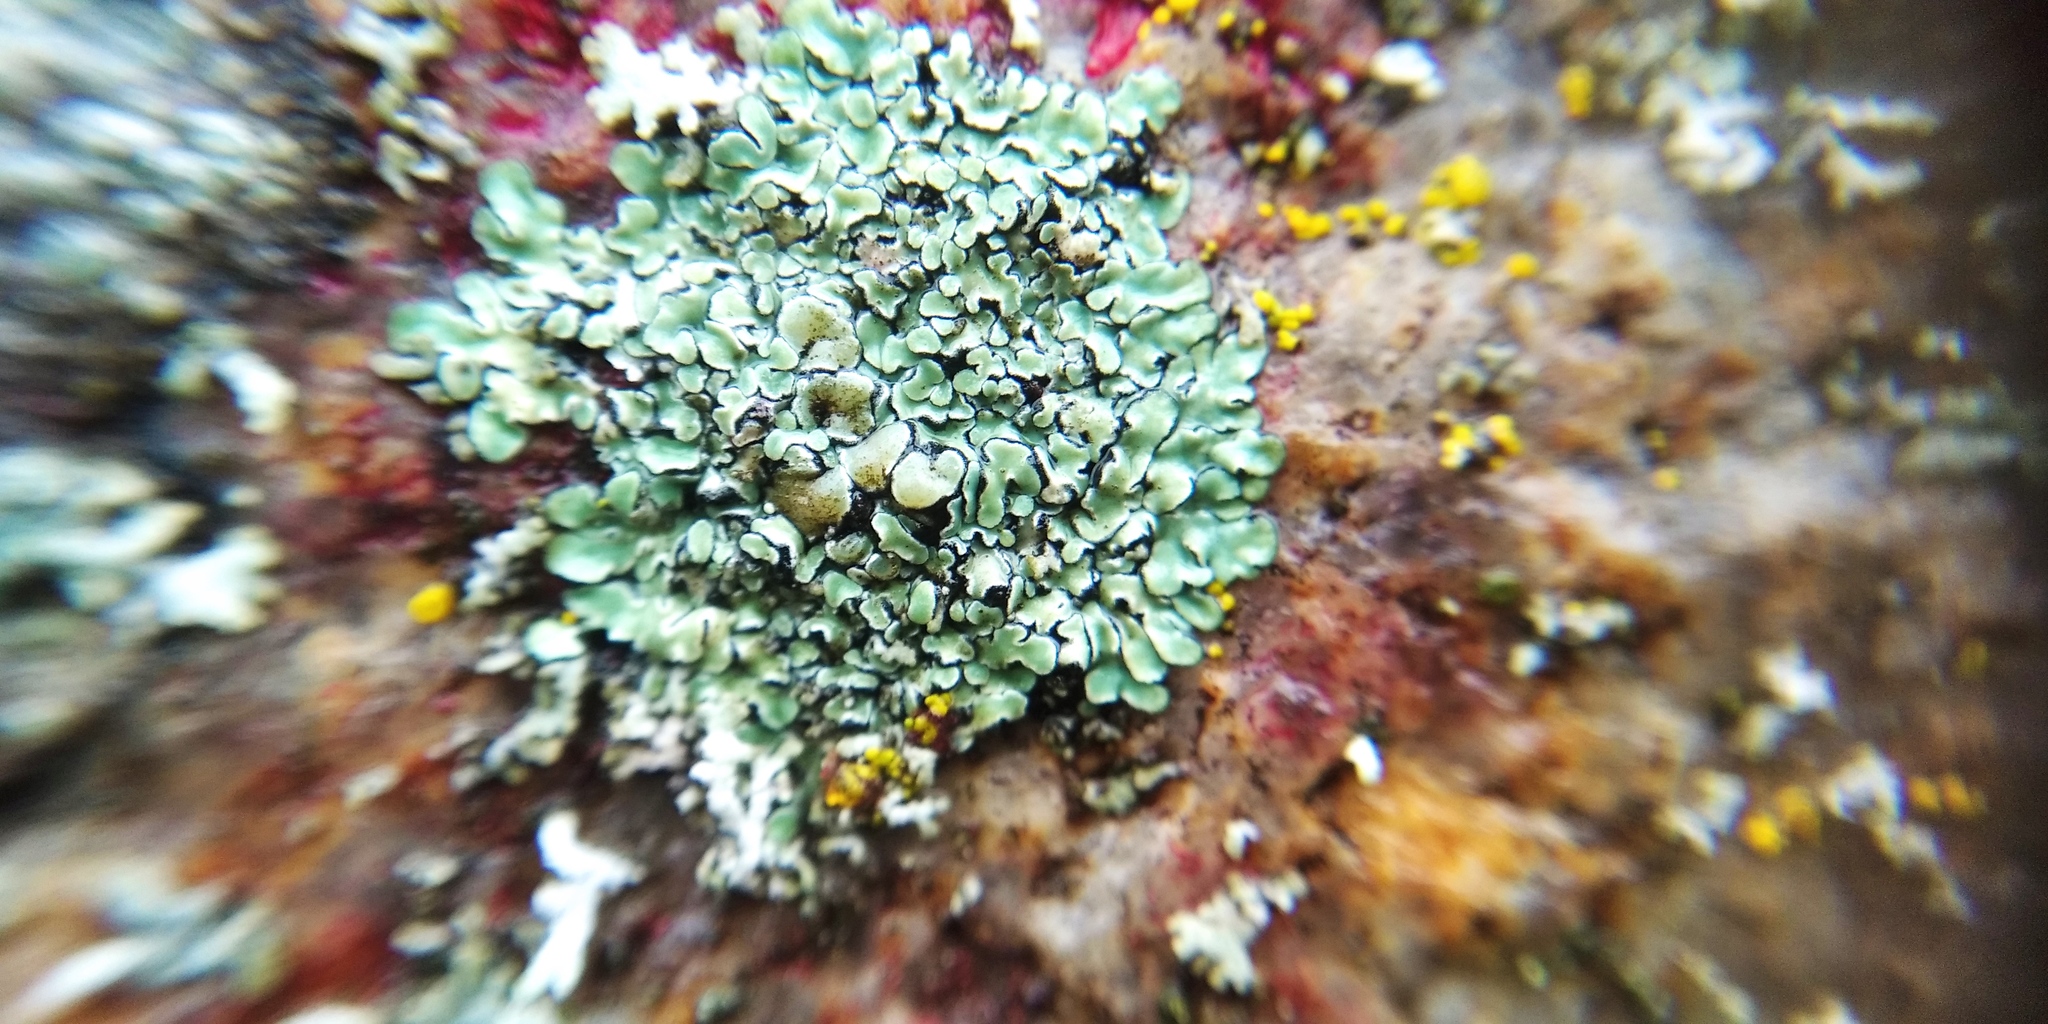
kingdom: Fungi
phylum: Ascomycota
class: Lecanoromycetes
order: Lecanorales
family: Lecanoraceae
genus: Protoparmeliopsis
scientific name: Protoparmeliopsis muralis
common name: Stonewall rim lichen
